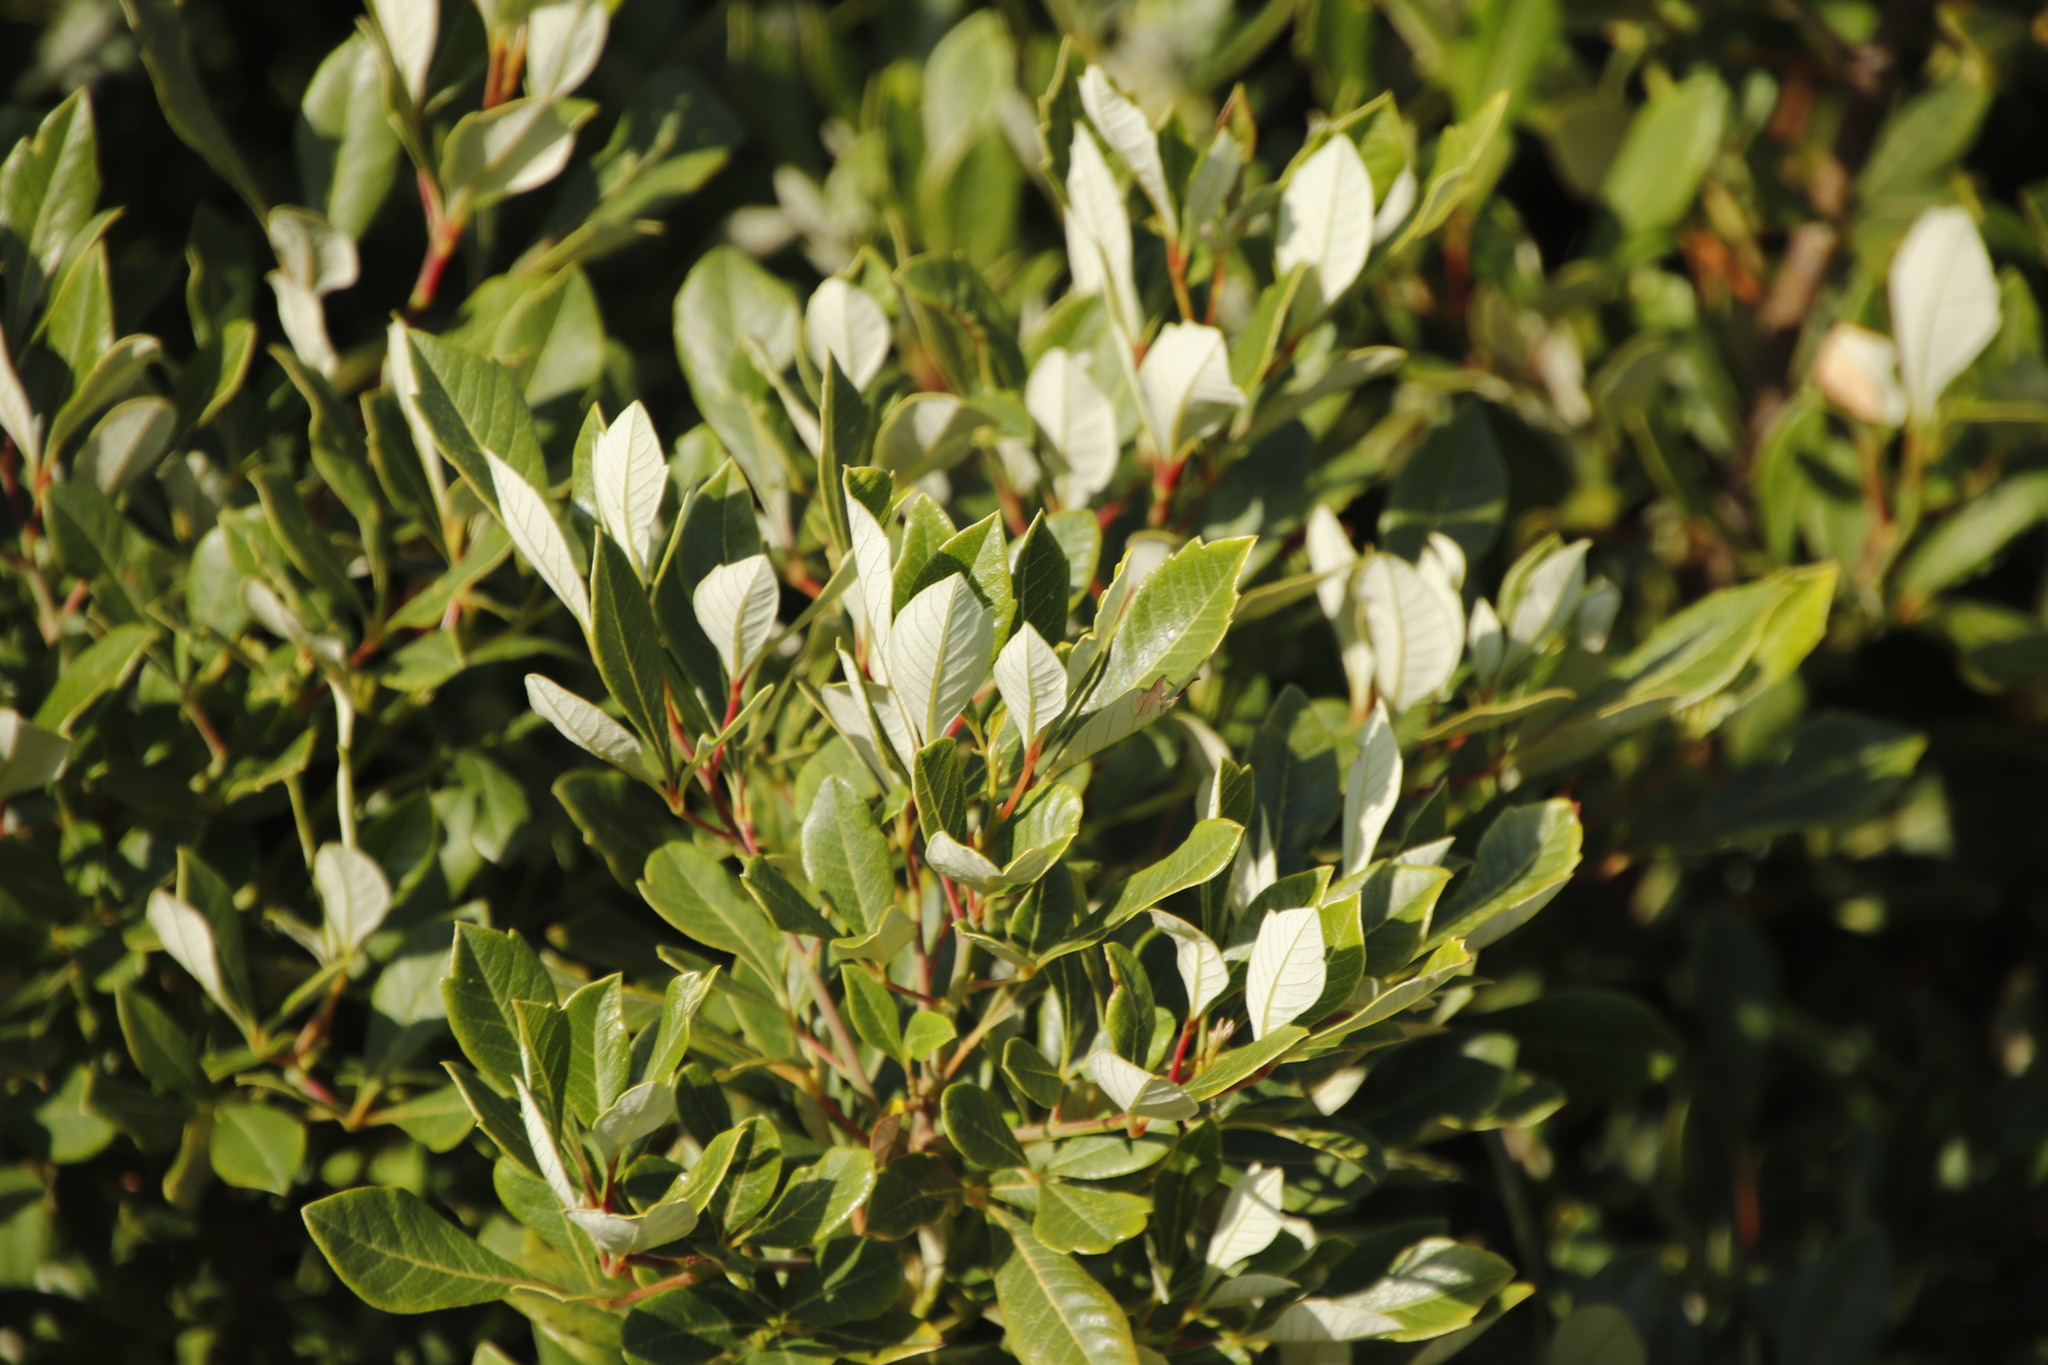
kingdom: Plantae
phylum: Tracheophyta
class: Magnoliopsida
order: Sapindales
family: Anacardiaceae
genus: Searsia
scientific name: Searsia tomentosa
